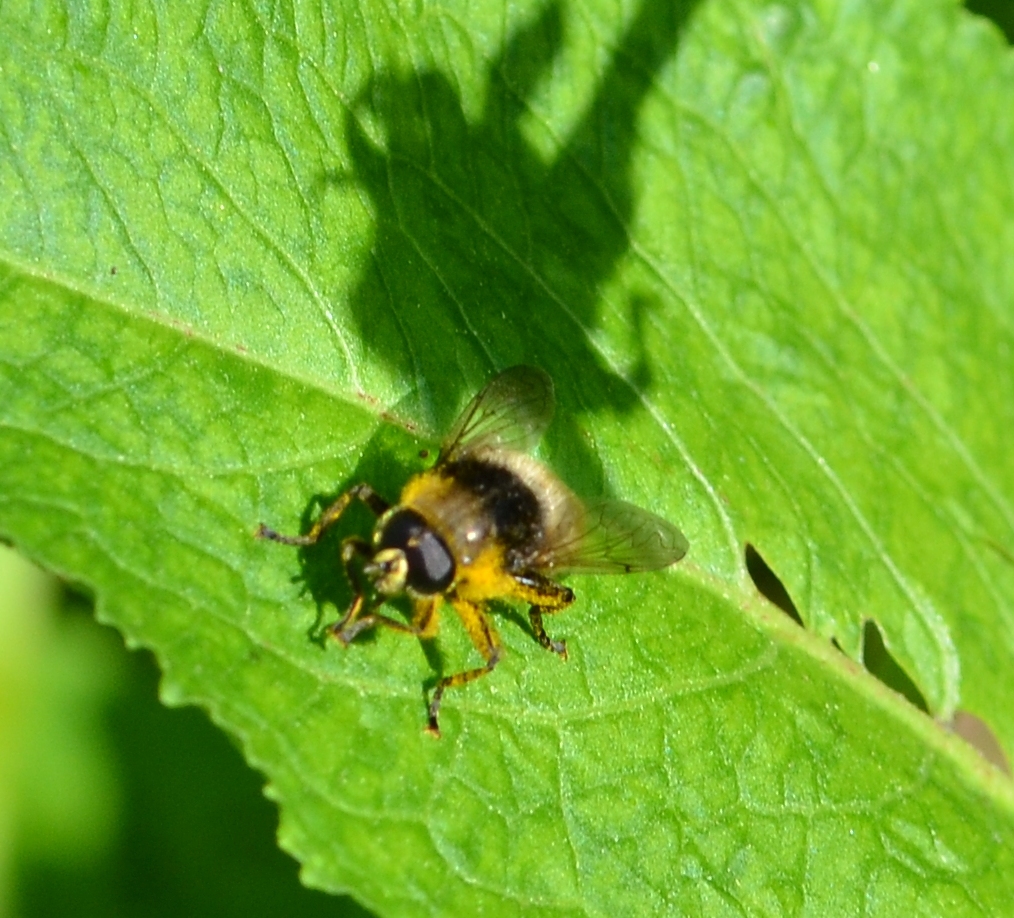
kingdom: Animalia
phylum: Arthropoda
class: Insecta
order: Diptera
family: Syrphidae
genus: Merodon
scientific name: Merodon equestris
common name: Greater bulb-fly
